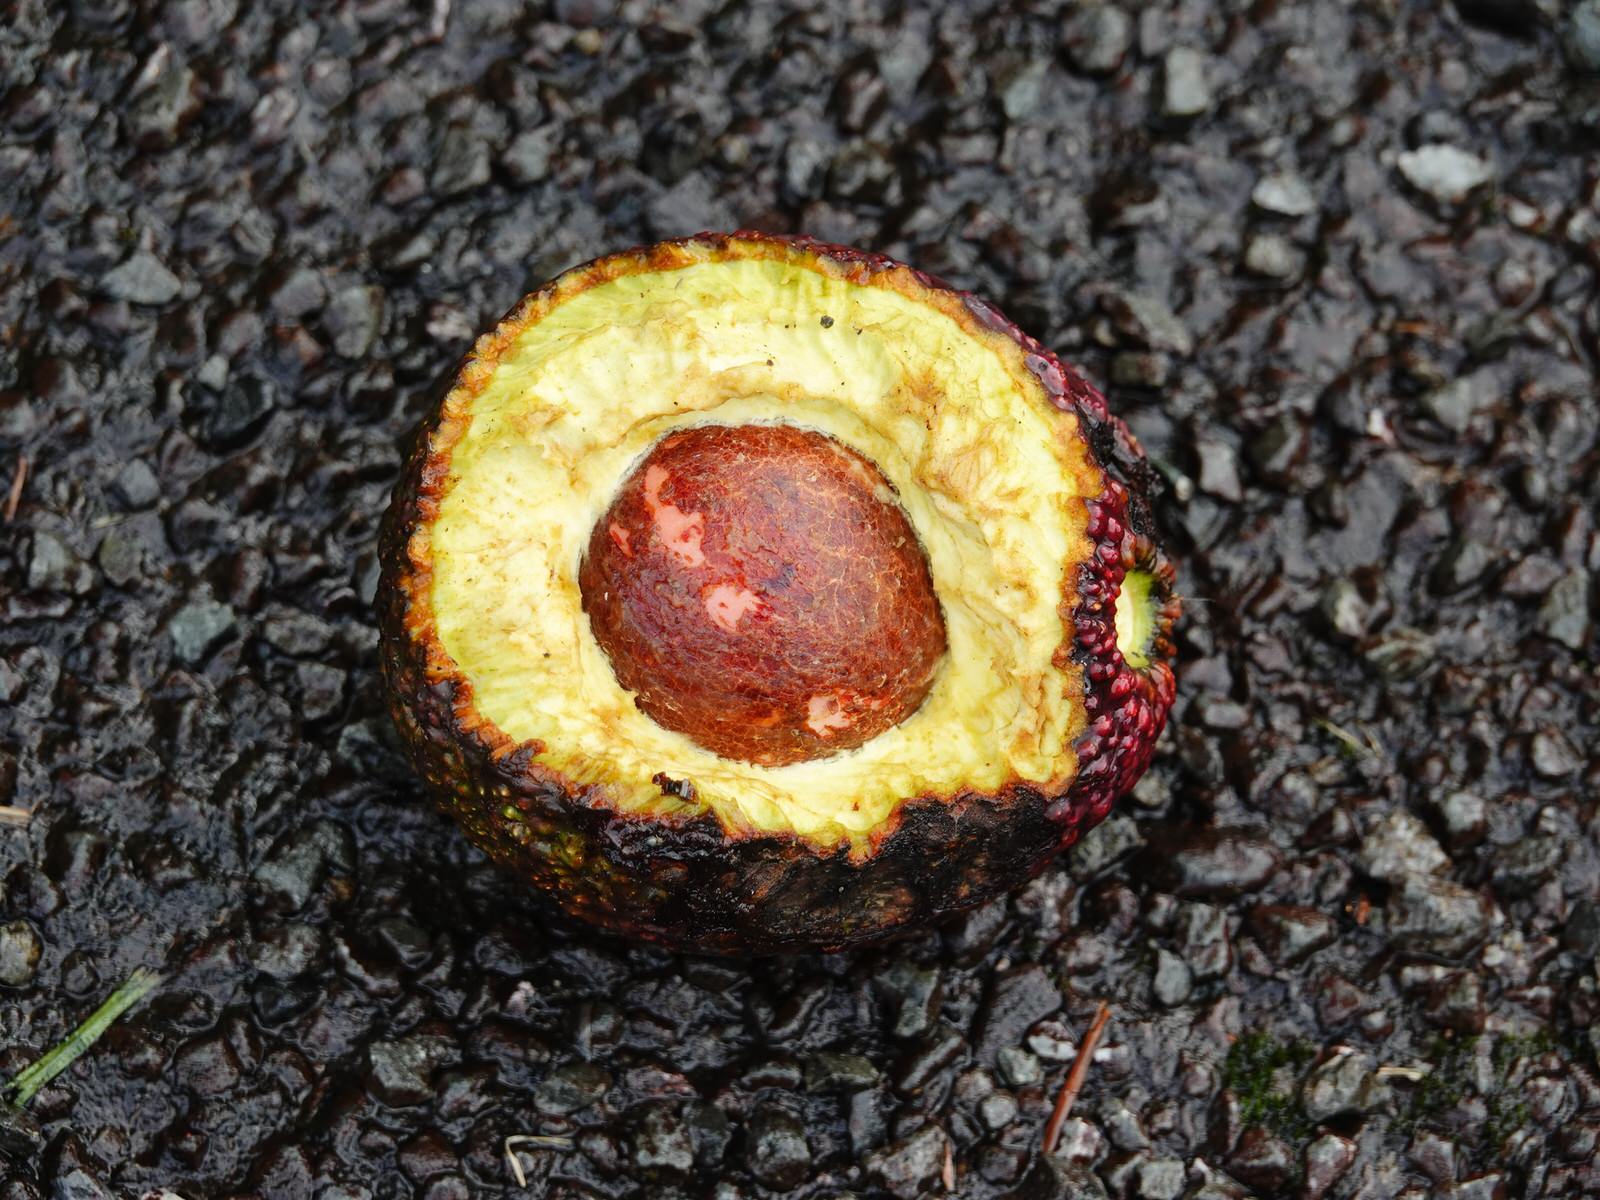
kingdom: Animalia
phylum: Chordata
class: Aves
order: Passeriformes
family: Zosteropidae
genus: Zosterops
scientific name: Zosterops lateralis
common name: Silvereye
